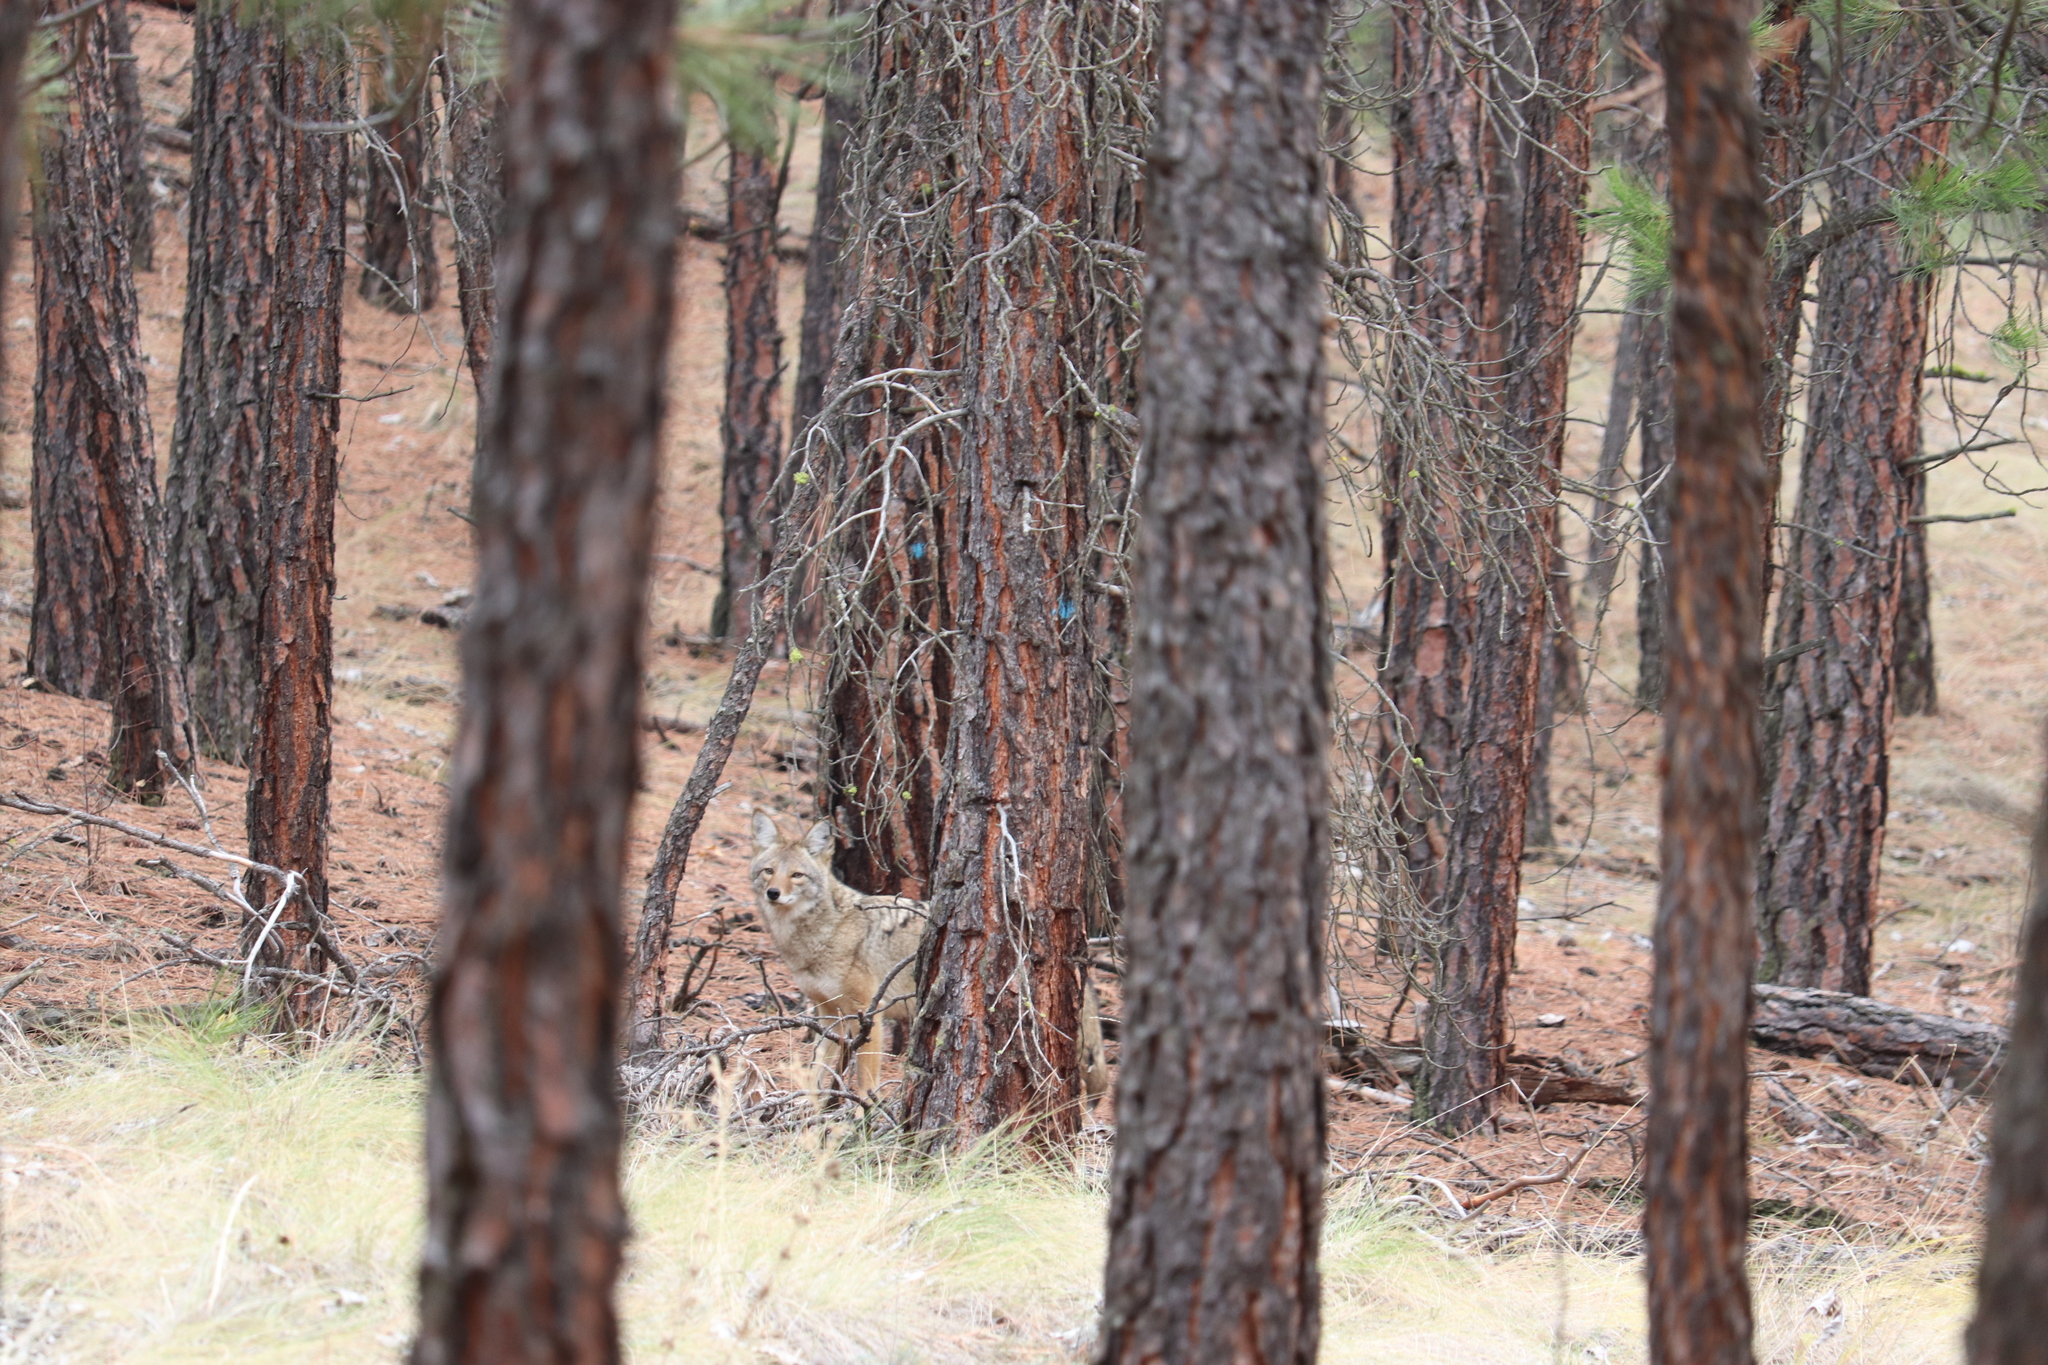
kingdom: Animalia
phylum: Chordata
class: Mammalia
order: Carnivora
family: Canidae
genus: Canis
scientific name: Canis latrans
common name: Coyote
